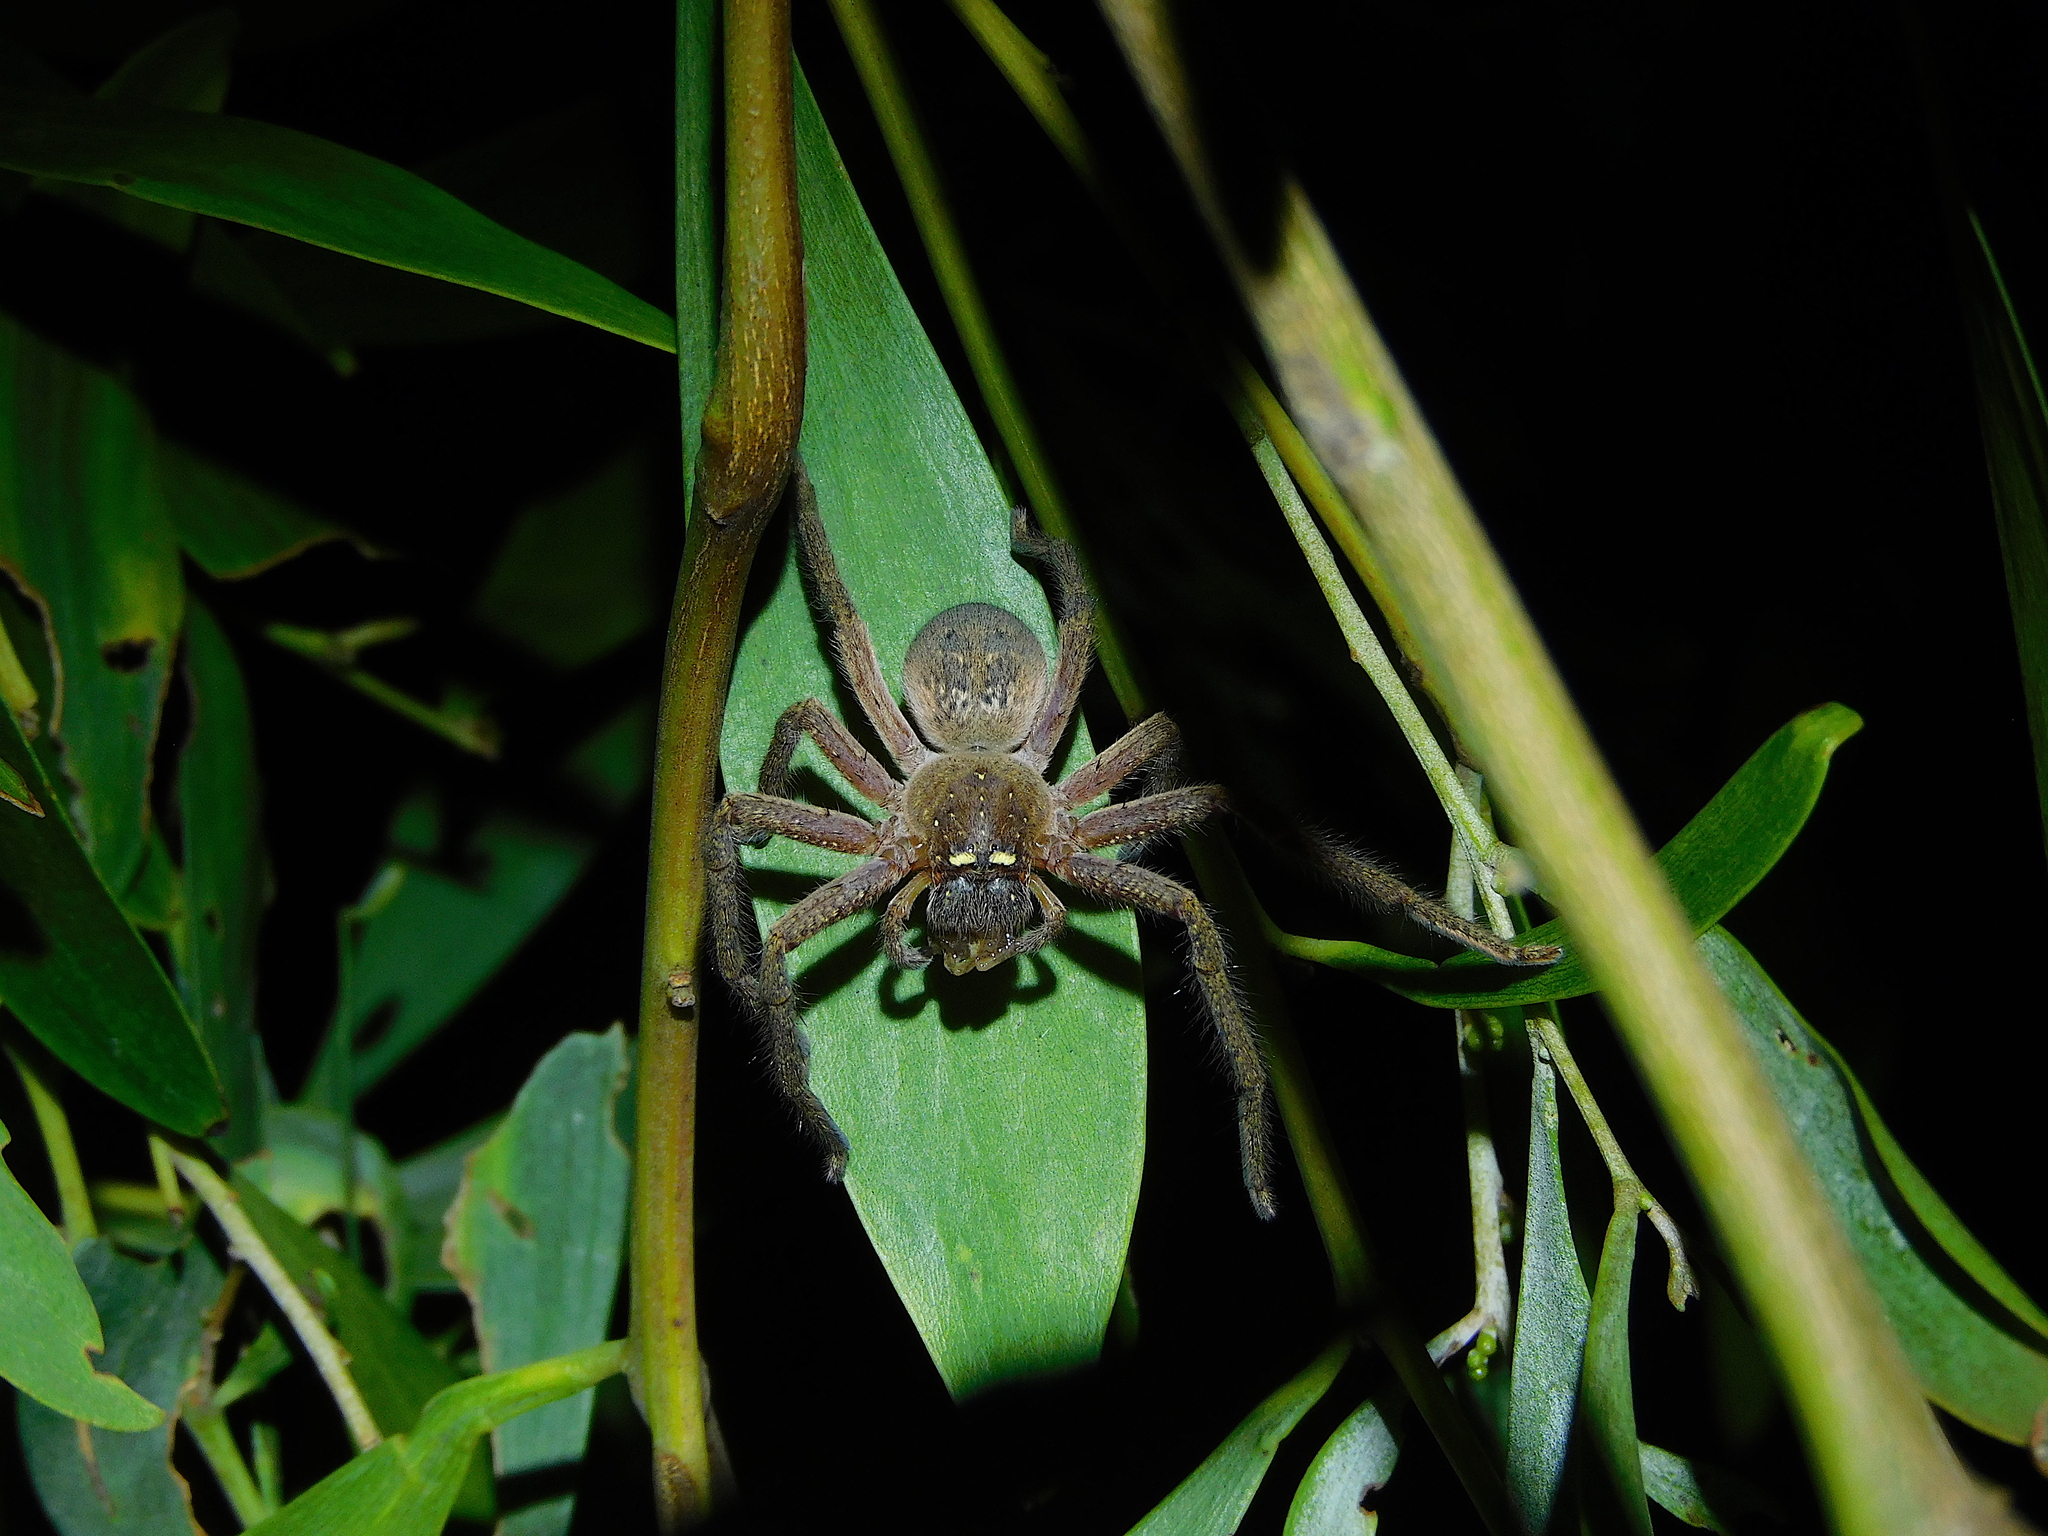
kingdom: Animalia
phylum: Arthropoda
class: Arachnida
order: Araneae
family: Sparassidae
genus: Neosparassus
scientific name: Neosparassus diana
